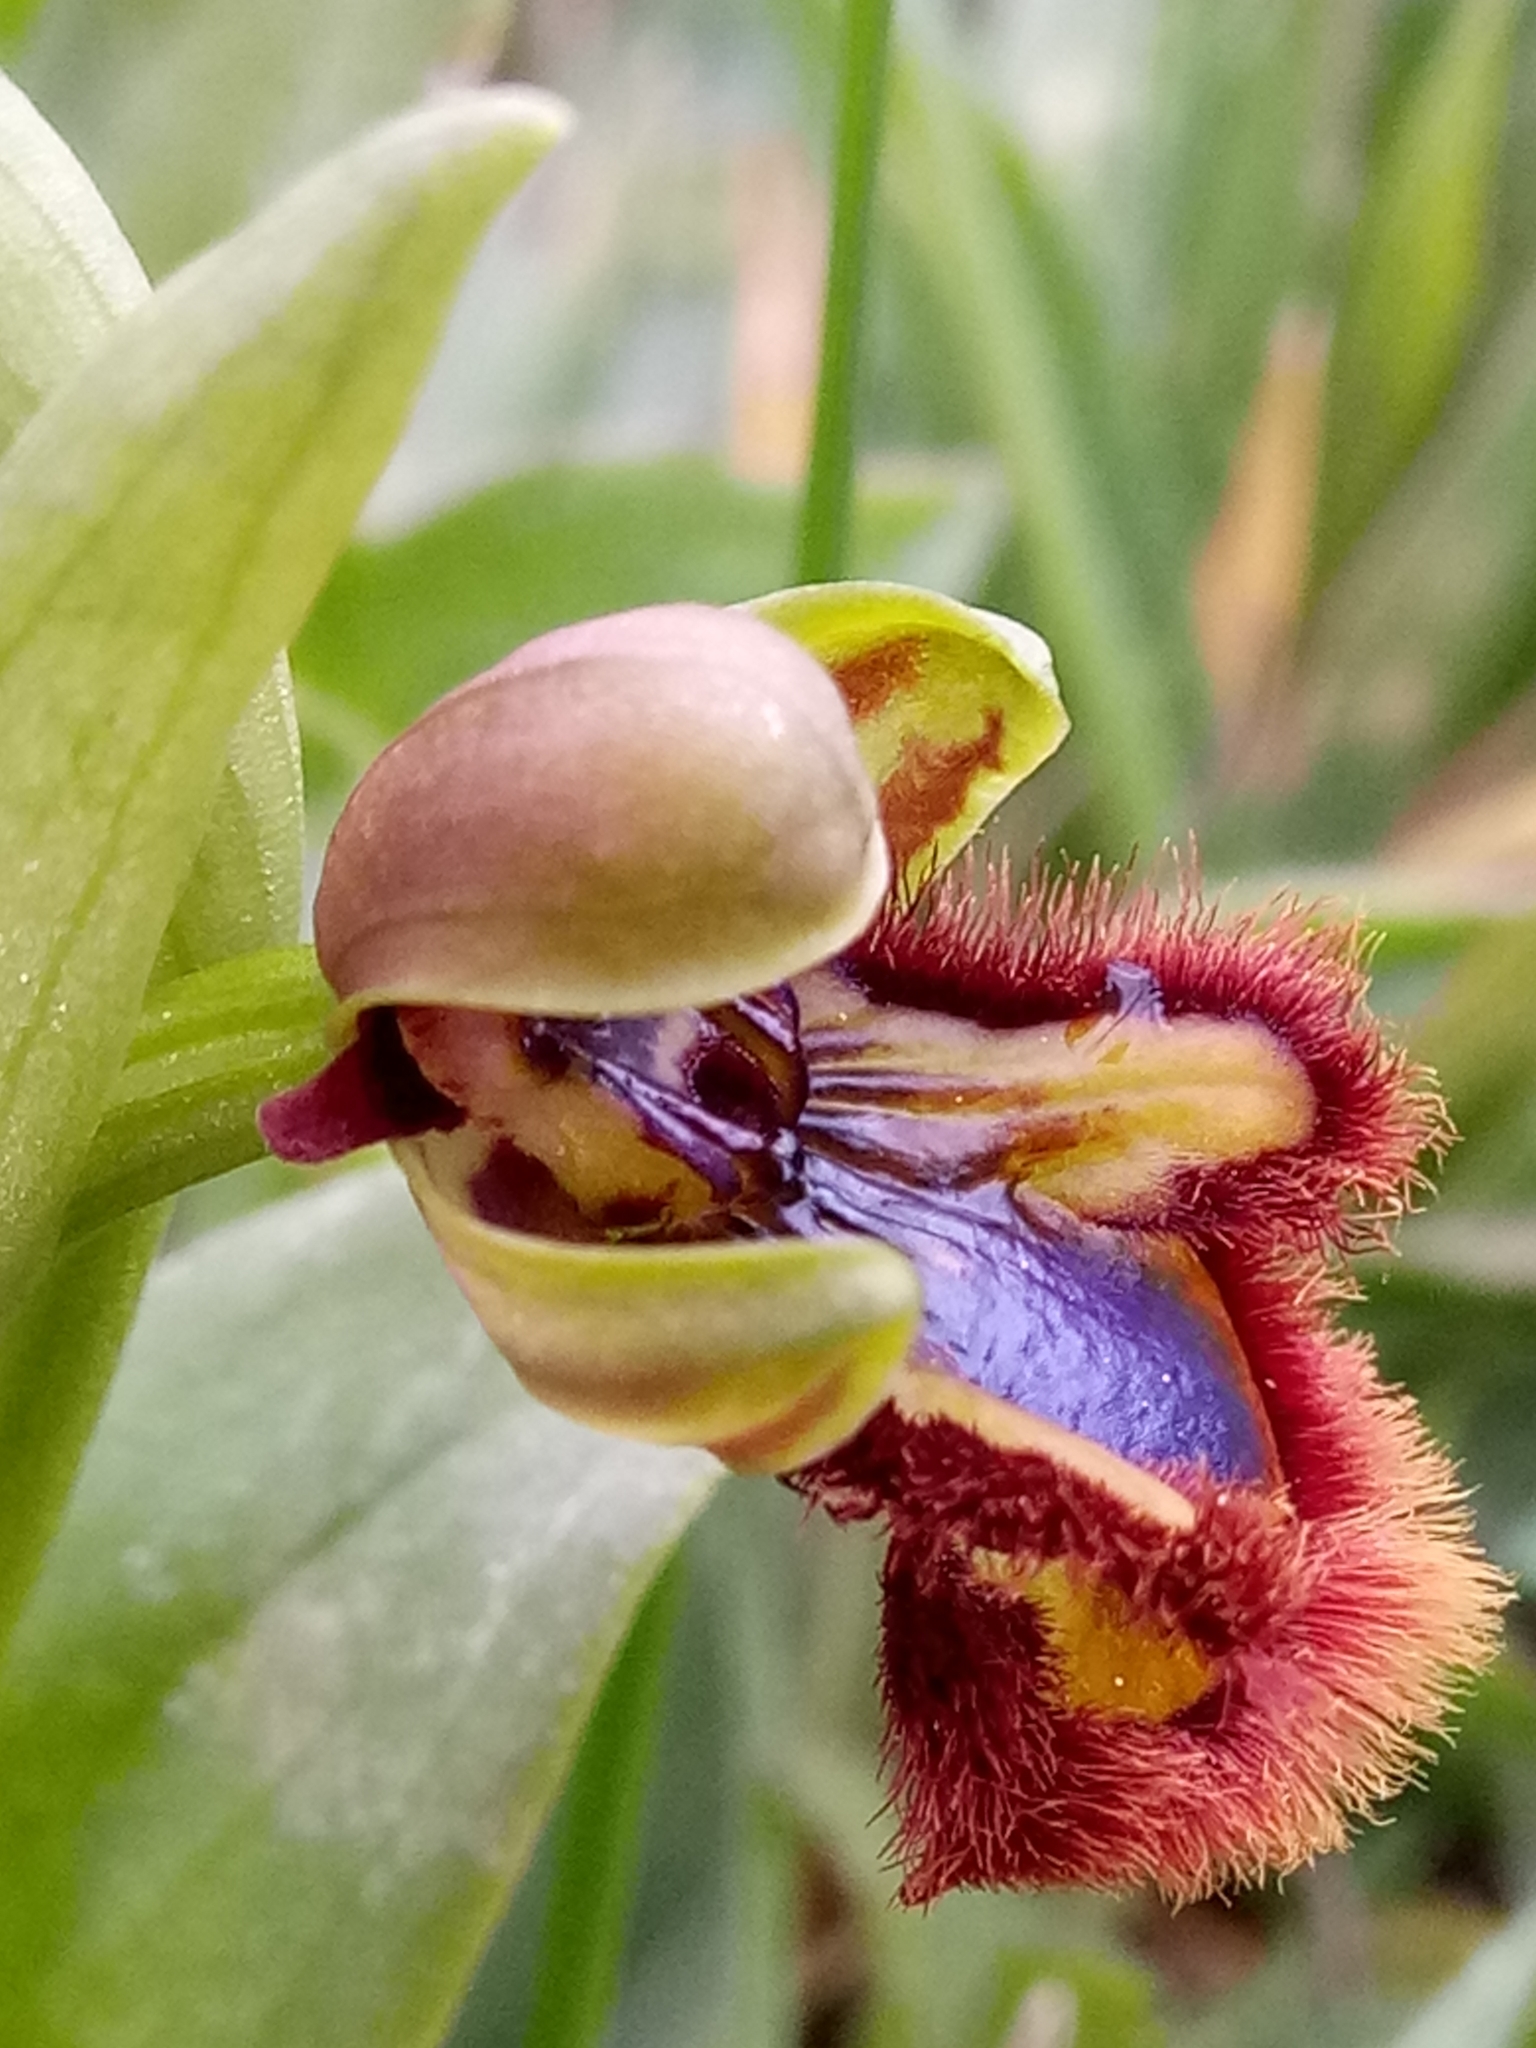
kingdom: Plantae
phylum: Tracheophyta
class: Liliopsida
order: Asparagales
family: Orchidaceae
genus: Ophrys
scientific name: Ophrys speculum
